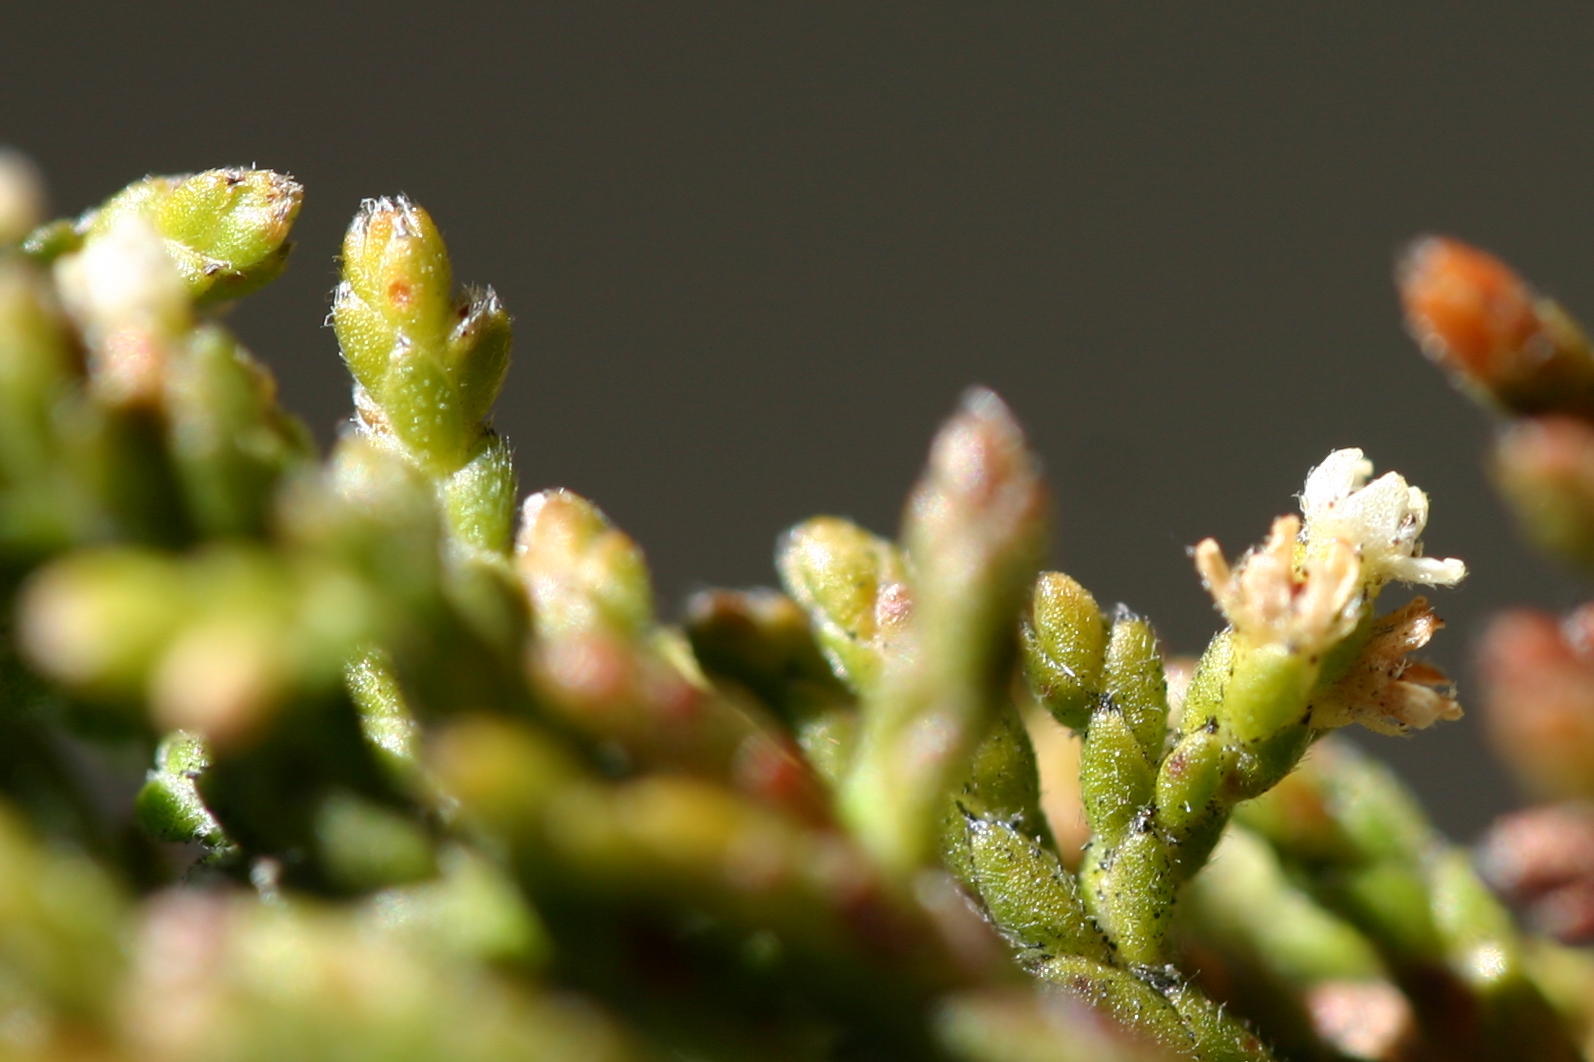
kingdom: Plantae
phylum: Tracheophyta
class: Magnoliopsida
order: Bruniales
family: Bruniaceae
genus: Brunia
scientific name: Brunia callunoides
